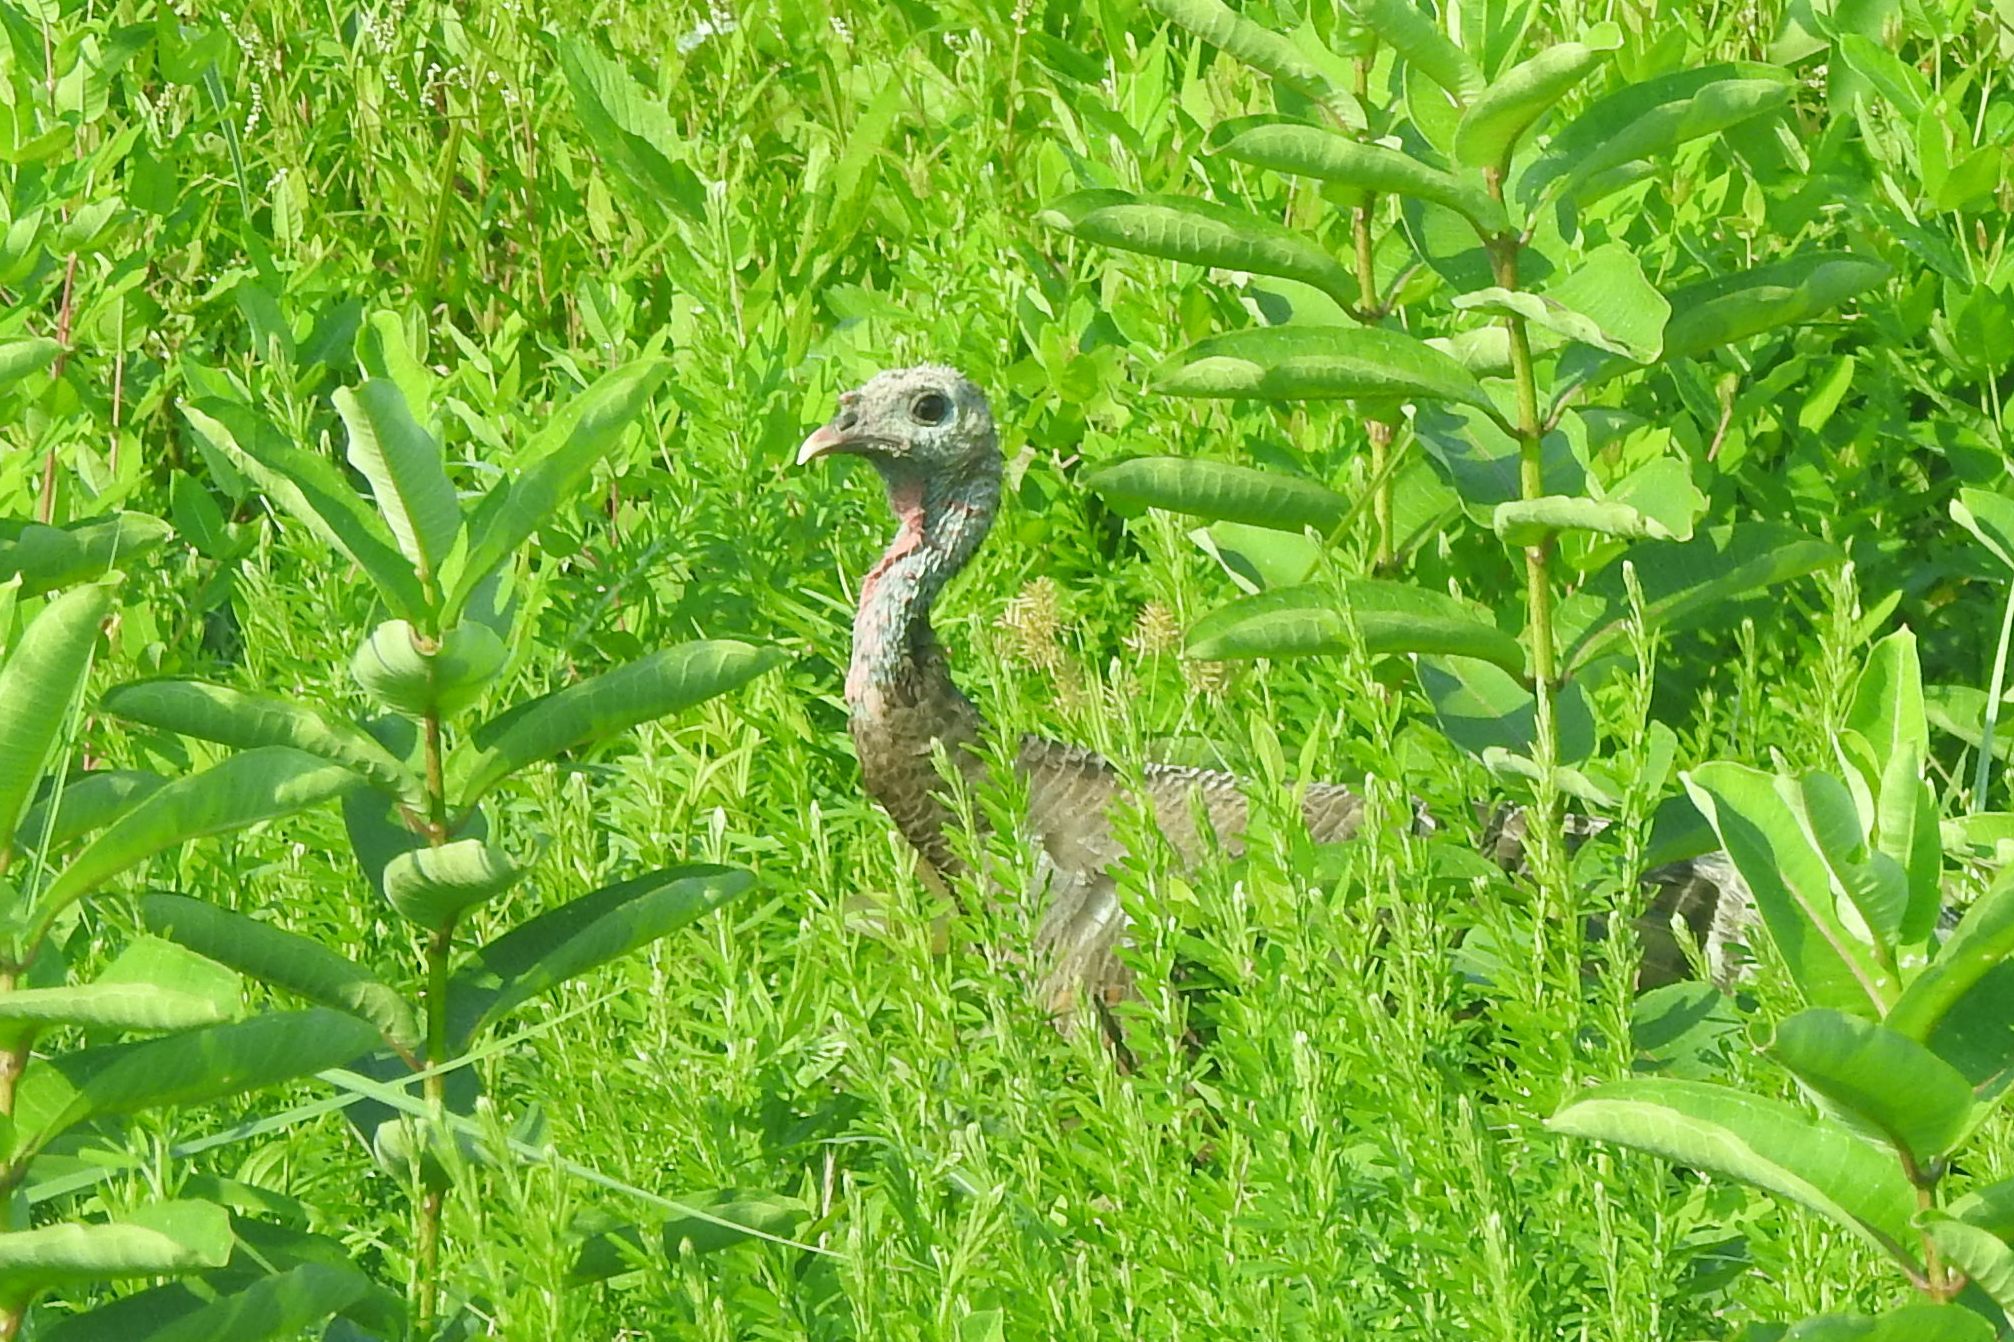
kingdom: Animalia
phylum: Chordata
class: Aves
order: Galliformes
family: Phasianidae
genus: Meleagris
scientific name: Meleagris gallopavo
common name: Wild turkey
